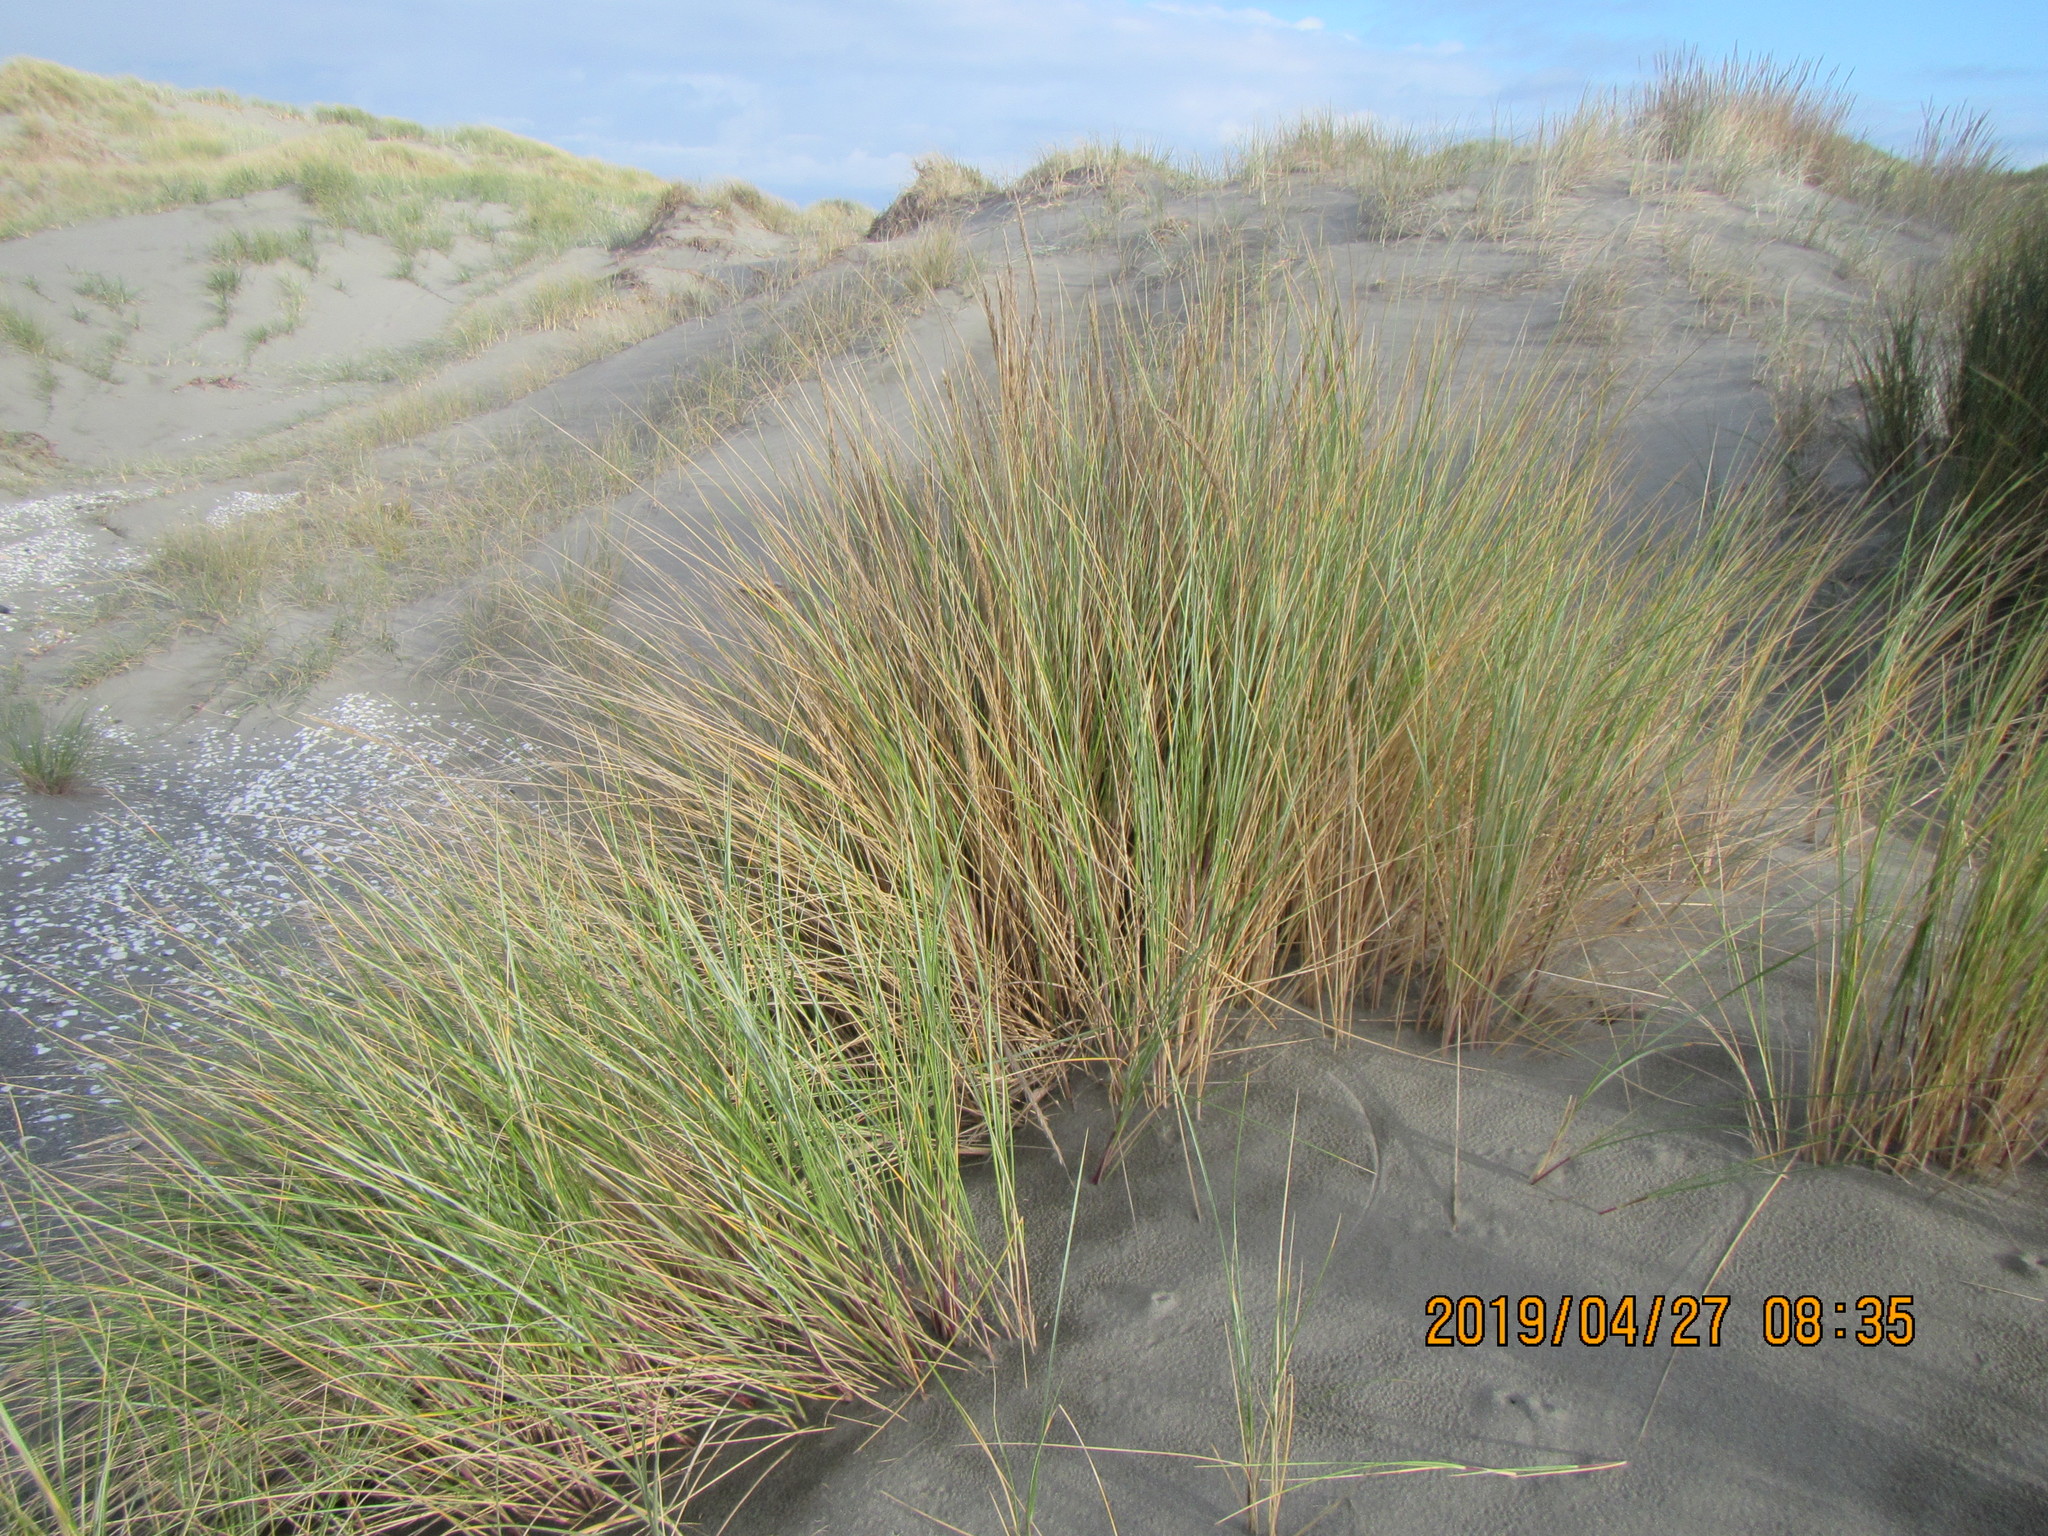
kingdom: Plantae
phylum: Tracheophyta
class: Liliopsida
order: Poales
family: Poaceae
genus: Calamagrostis
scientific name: Calamagrostis arenaria
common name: European beachgrass
